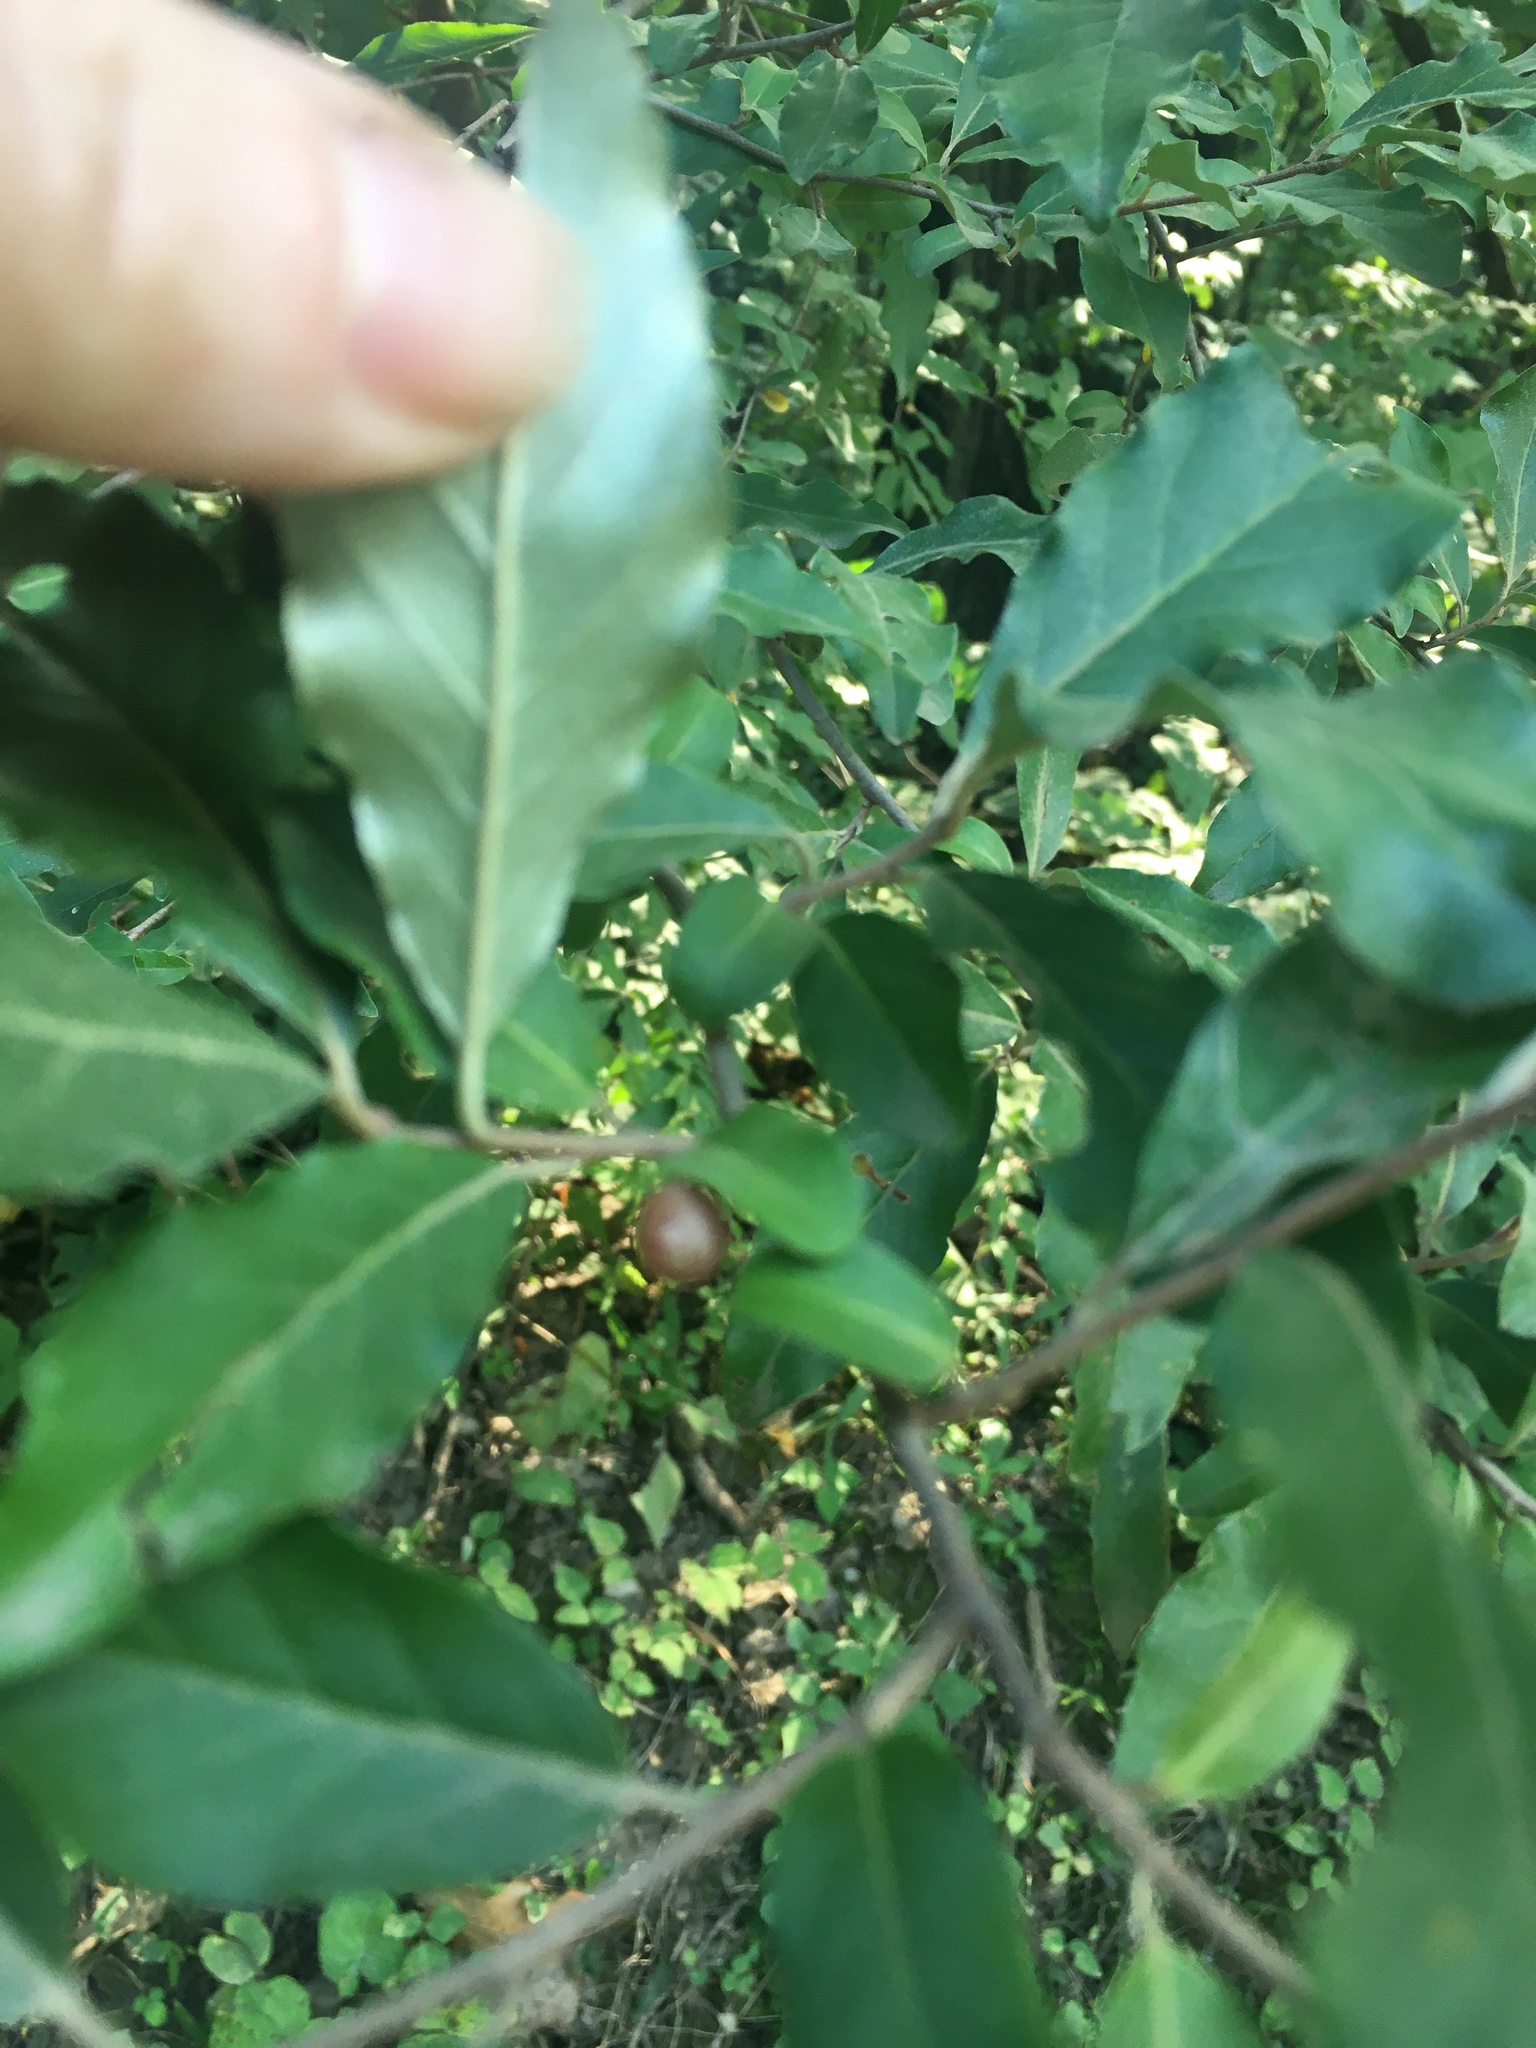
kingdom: Plantae
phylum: Tracheophyta
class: Magnoliopsida
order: Rosales
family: Elaeagnaceae
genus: Elaeagnus
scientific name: Elaeagnus umbellata
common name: Autumn olive
